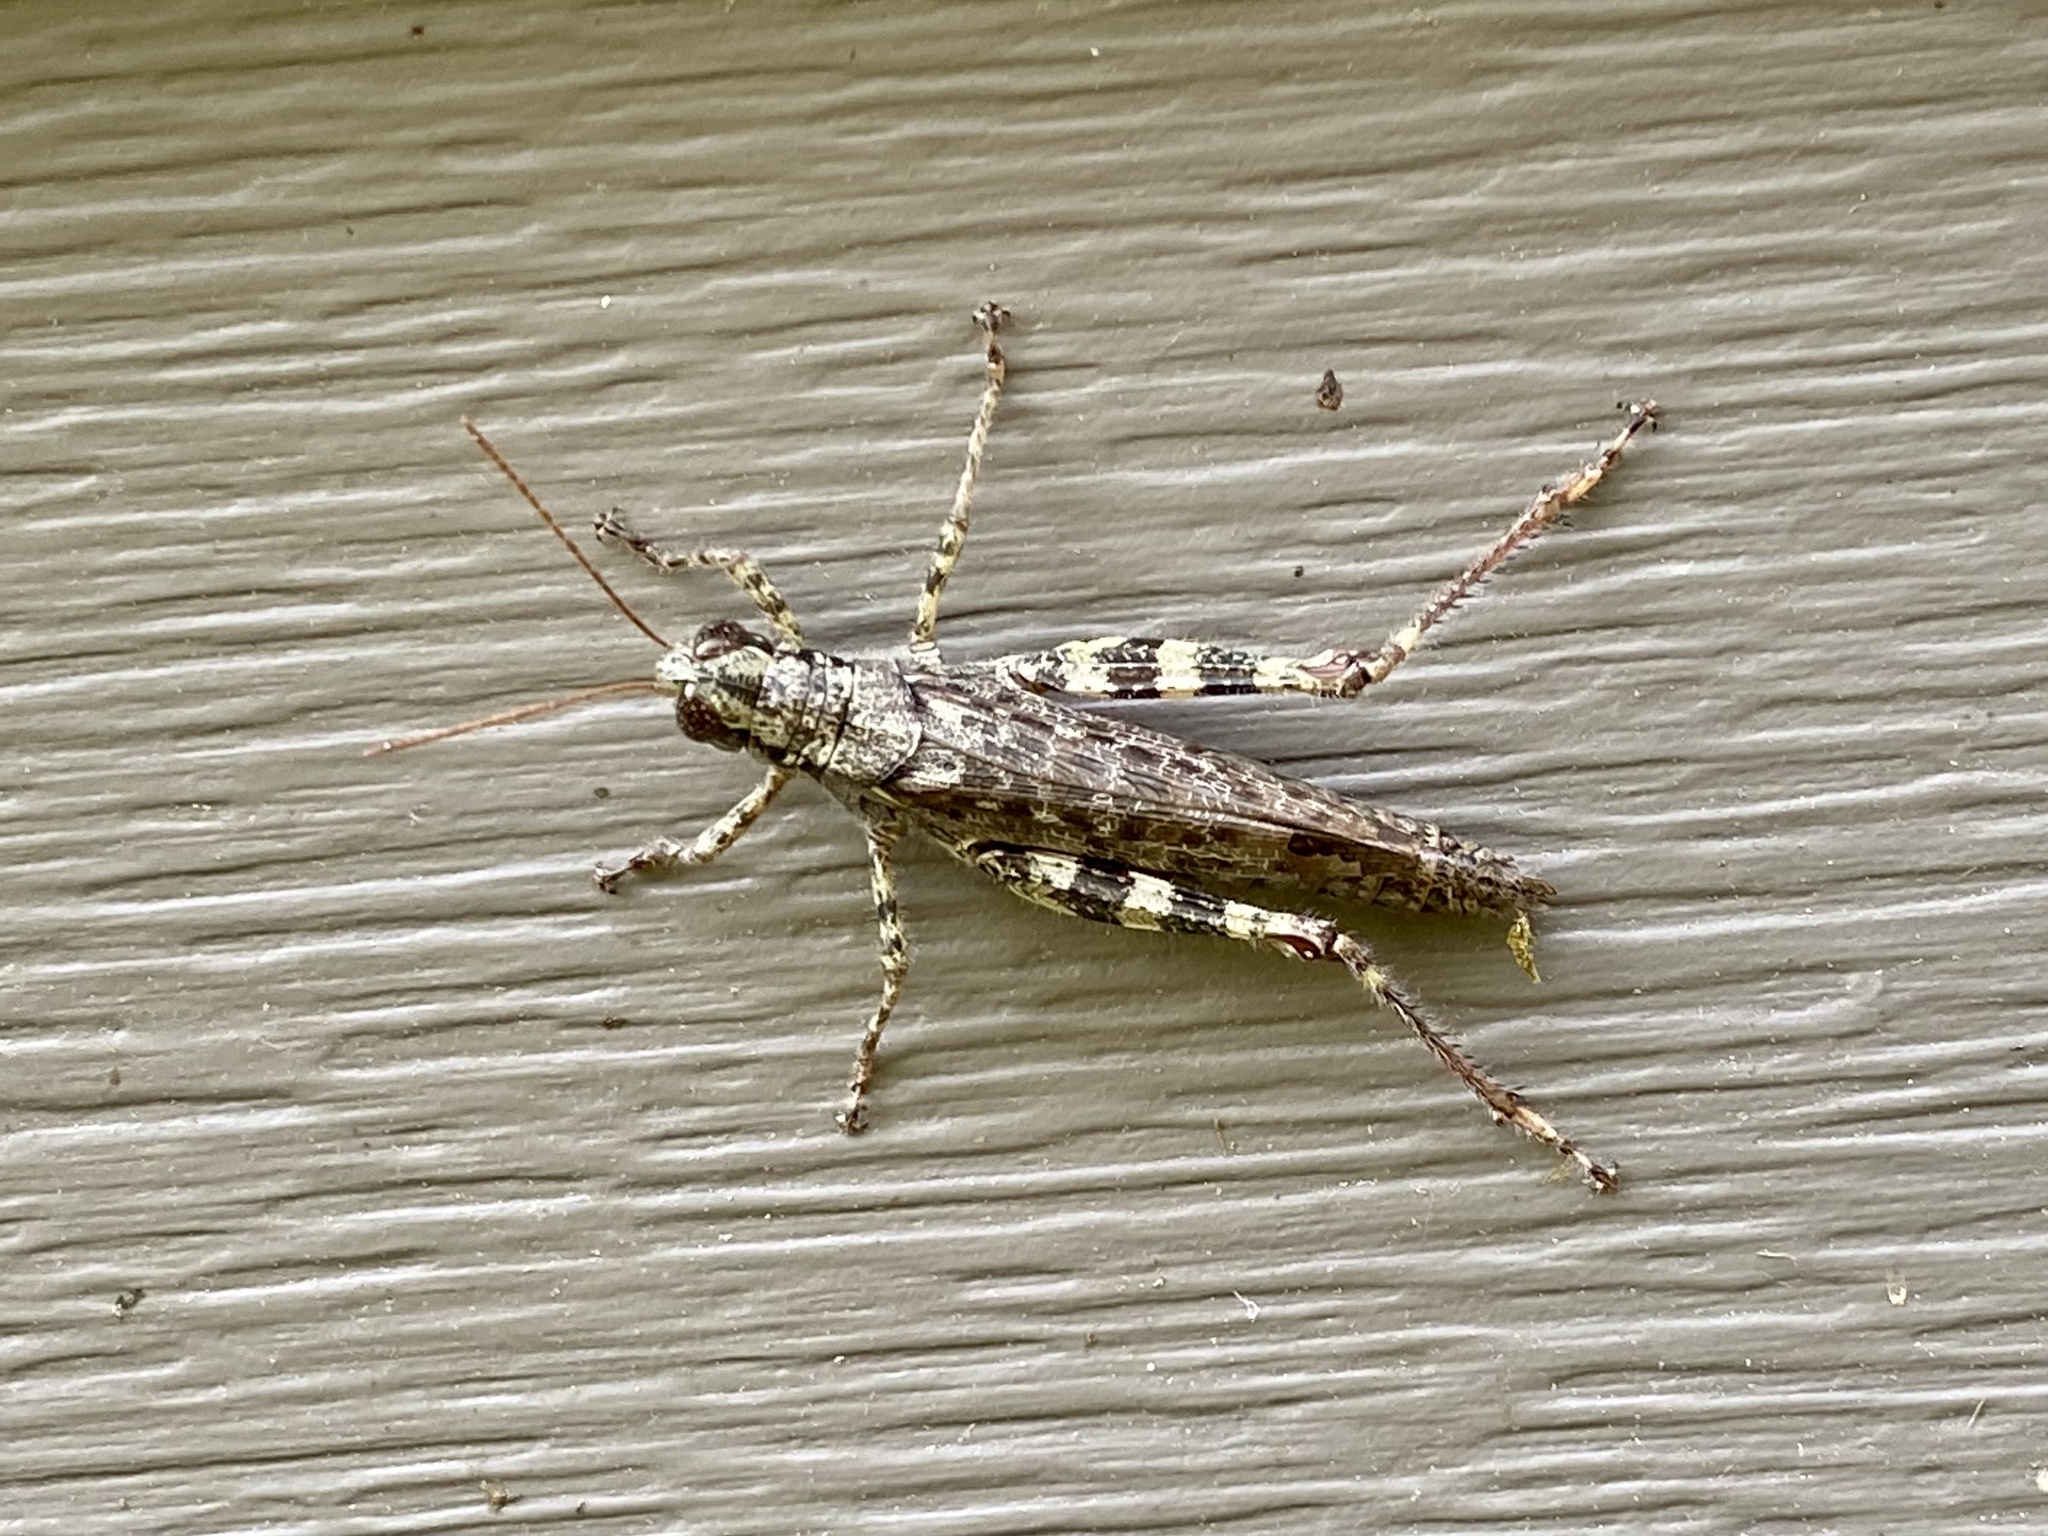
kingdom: Animalia
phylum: Arthropoda
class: Insecta
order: Orthoptera
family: Acrididae
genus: Melanoplus
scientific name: Melanoplus punctulatus
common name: Pine-tree spur-throat grasshopper
